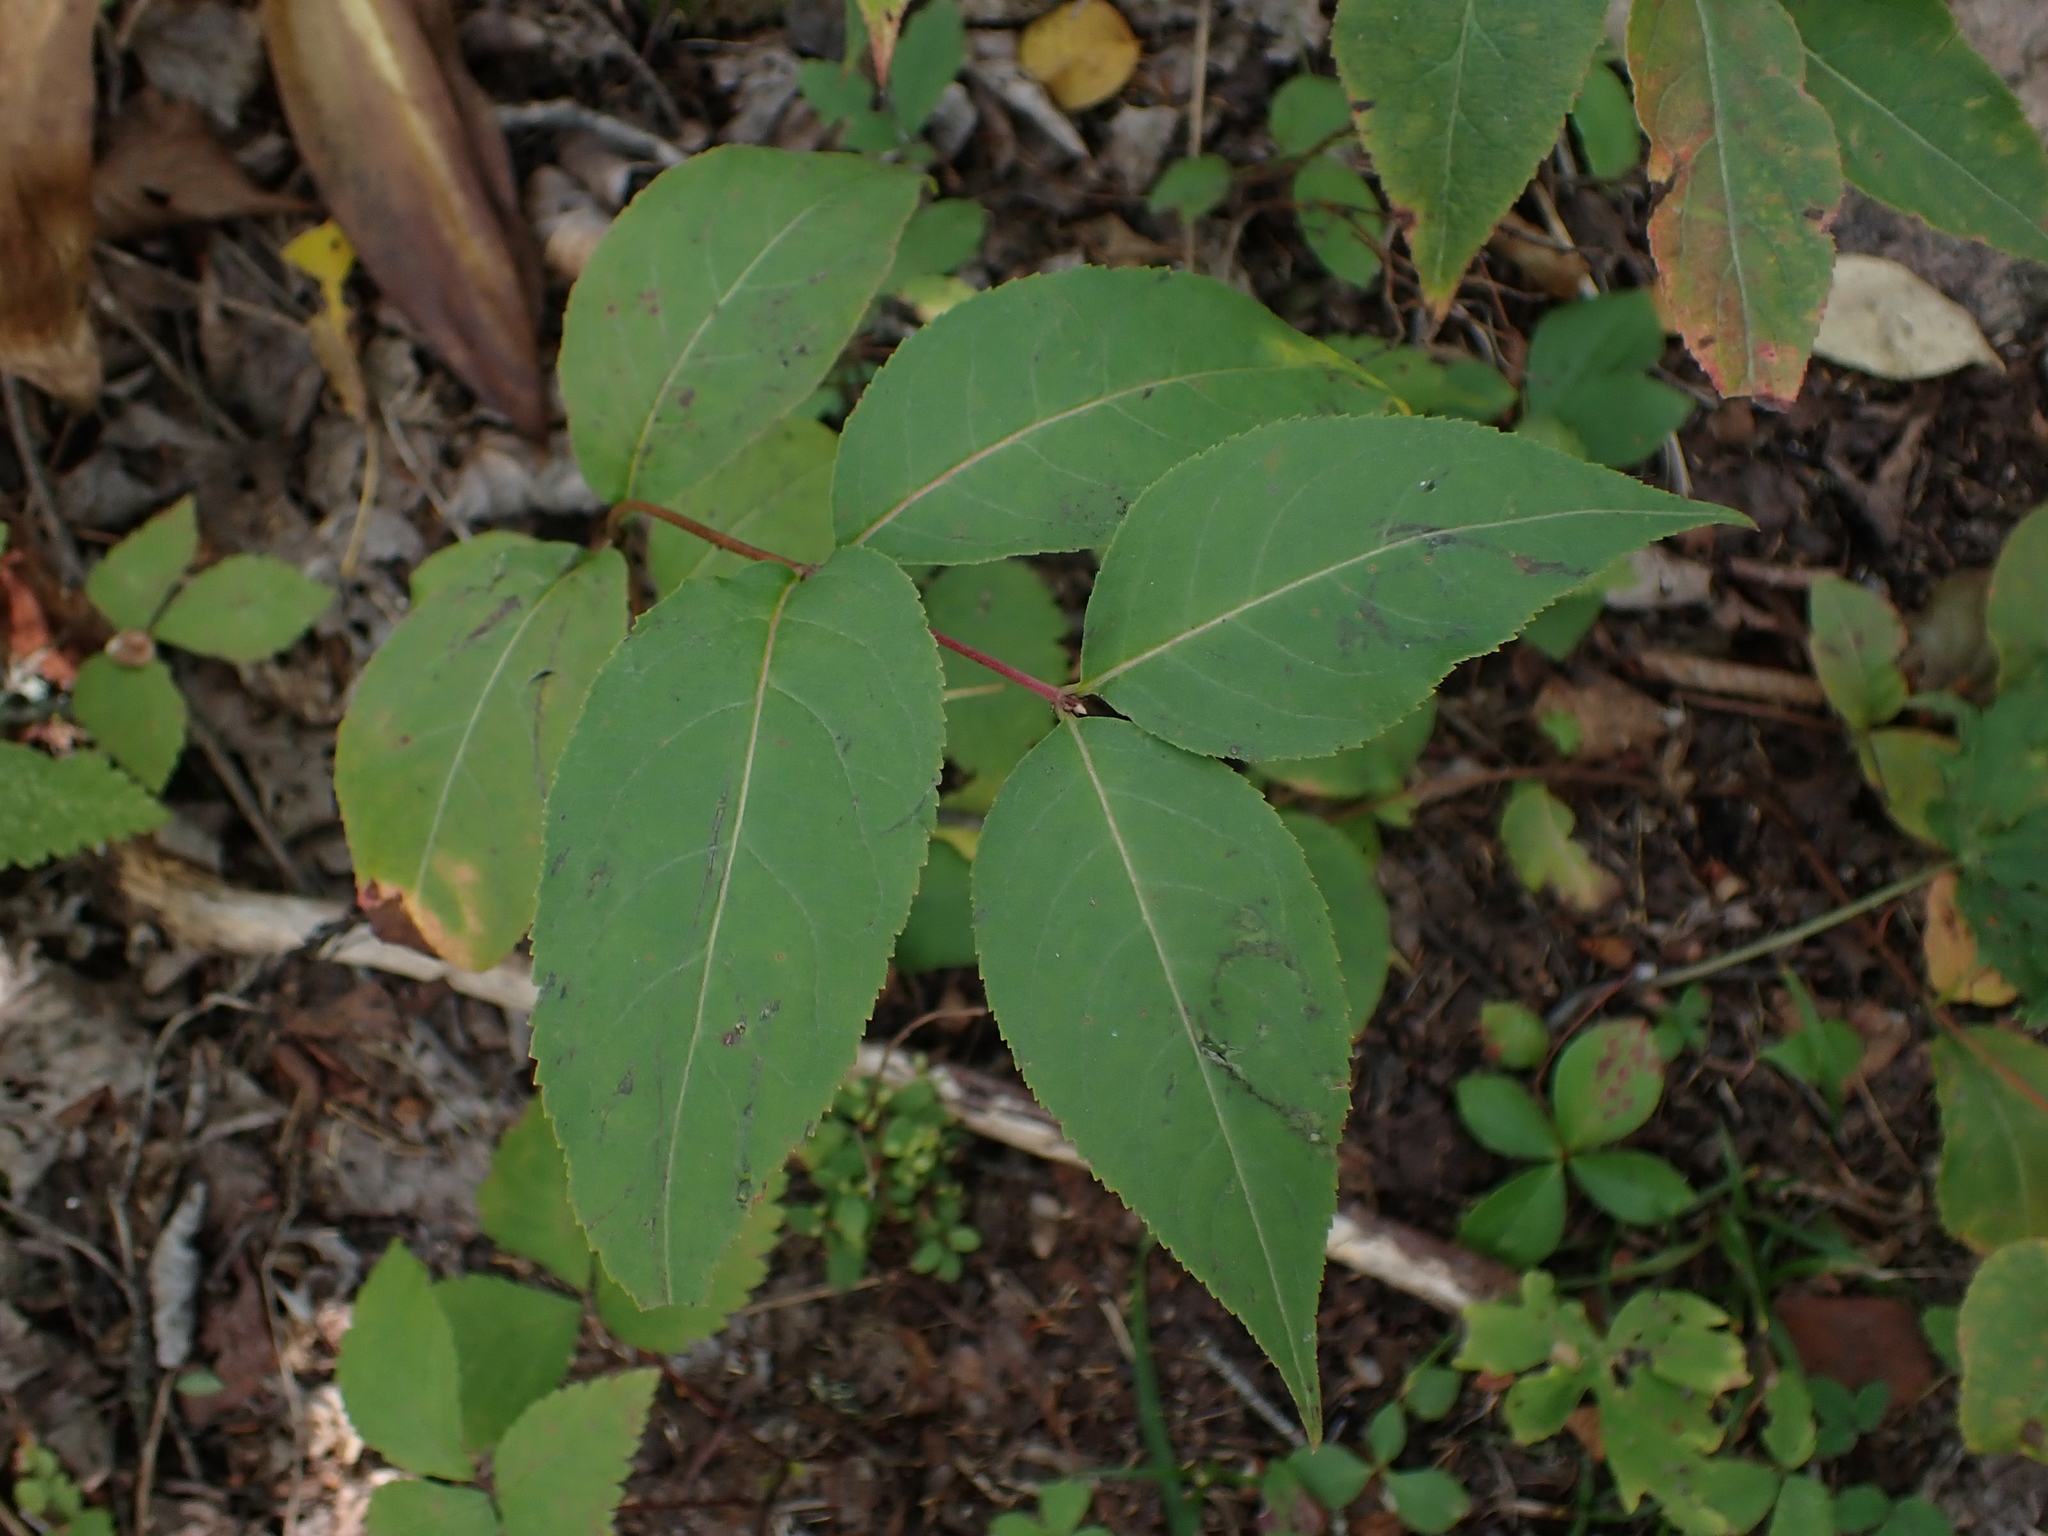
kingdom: Plantae
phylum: Tracheophyta
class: Magnoliopsida
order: Dipsacales
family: Caprifoliaceae
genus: Diervilla
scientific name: Diervilla lonicera
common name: Bush-honeysuckle
